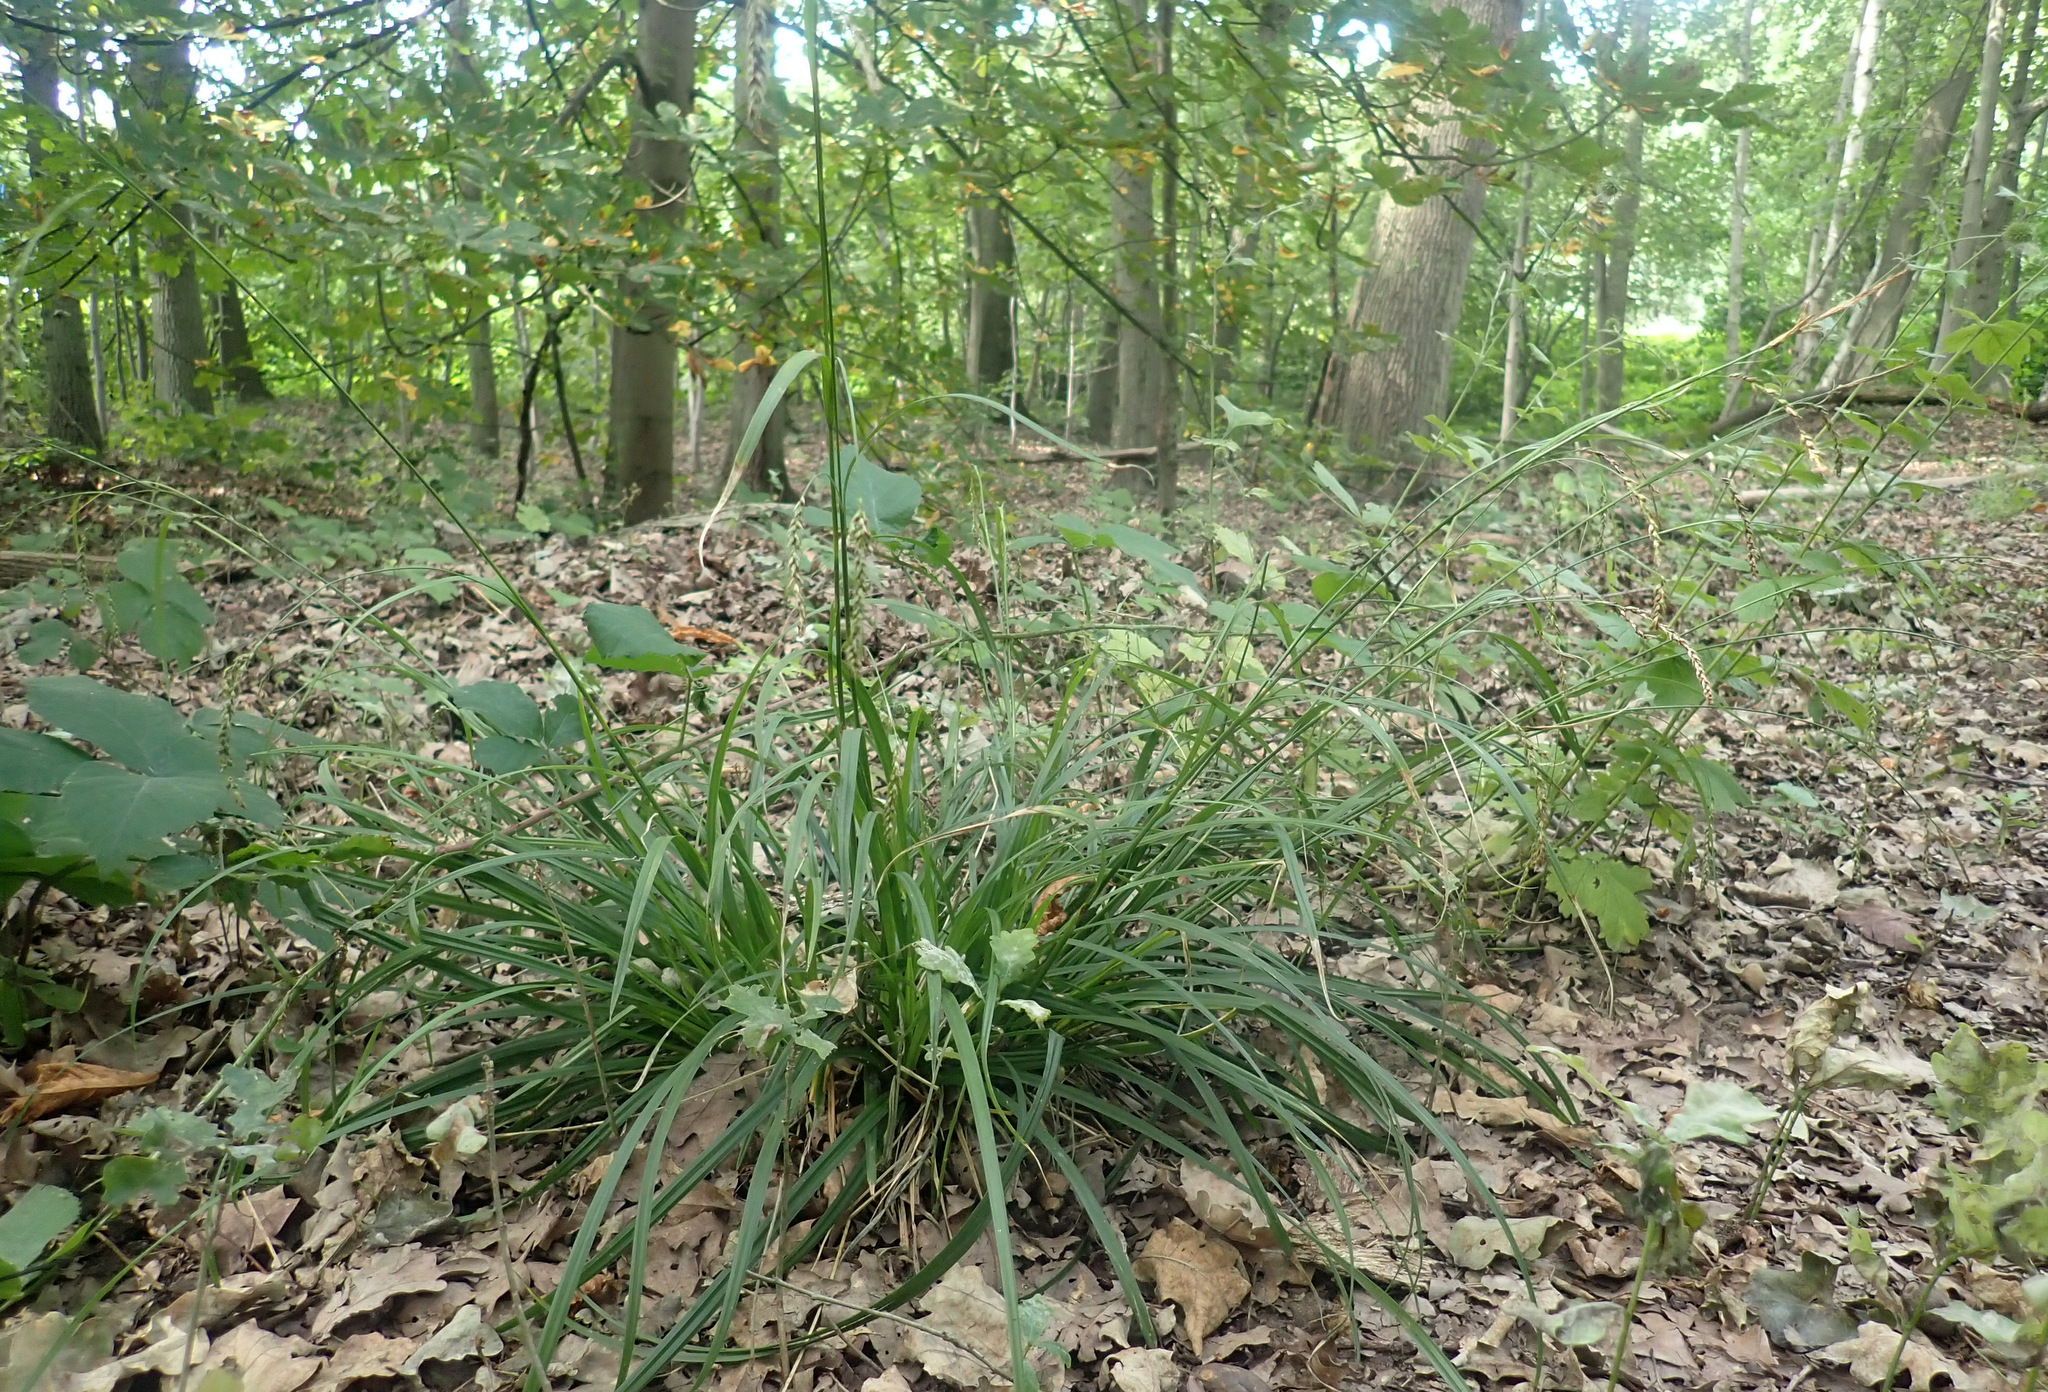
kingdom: Plantae
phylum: Tracheophyta
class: Liliopsida
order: Poales
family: Cyperaceae
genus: Carex
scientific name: Carex sylvatica
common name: Wood-sedge
